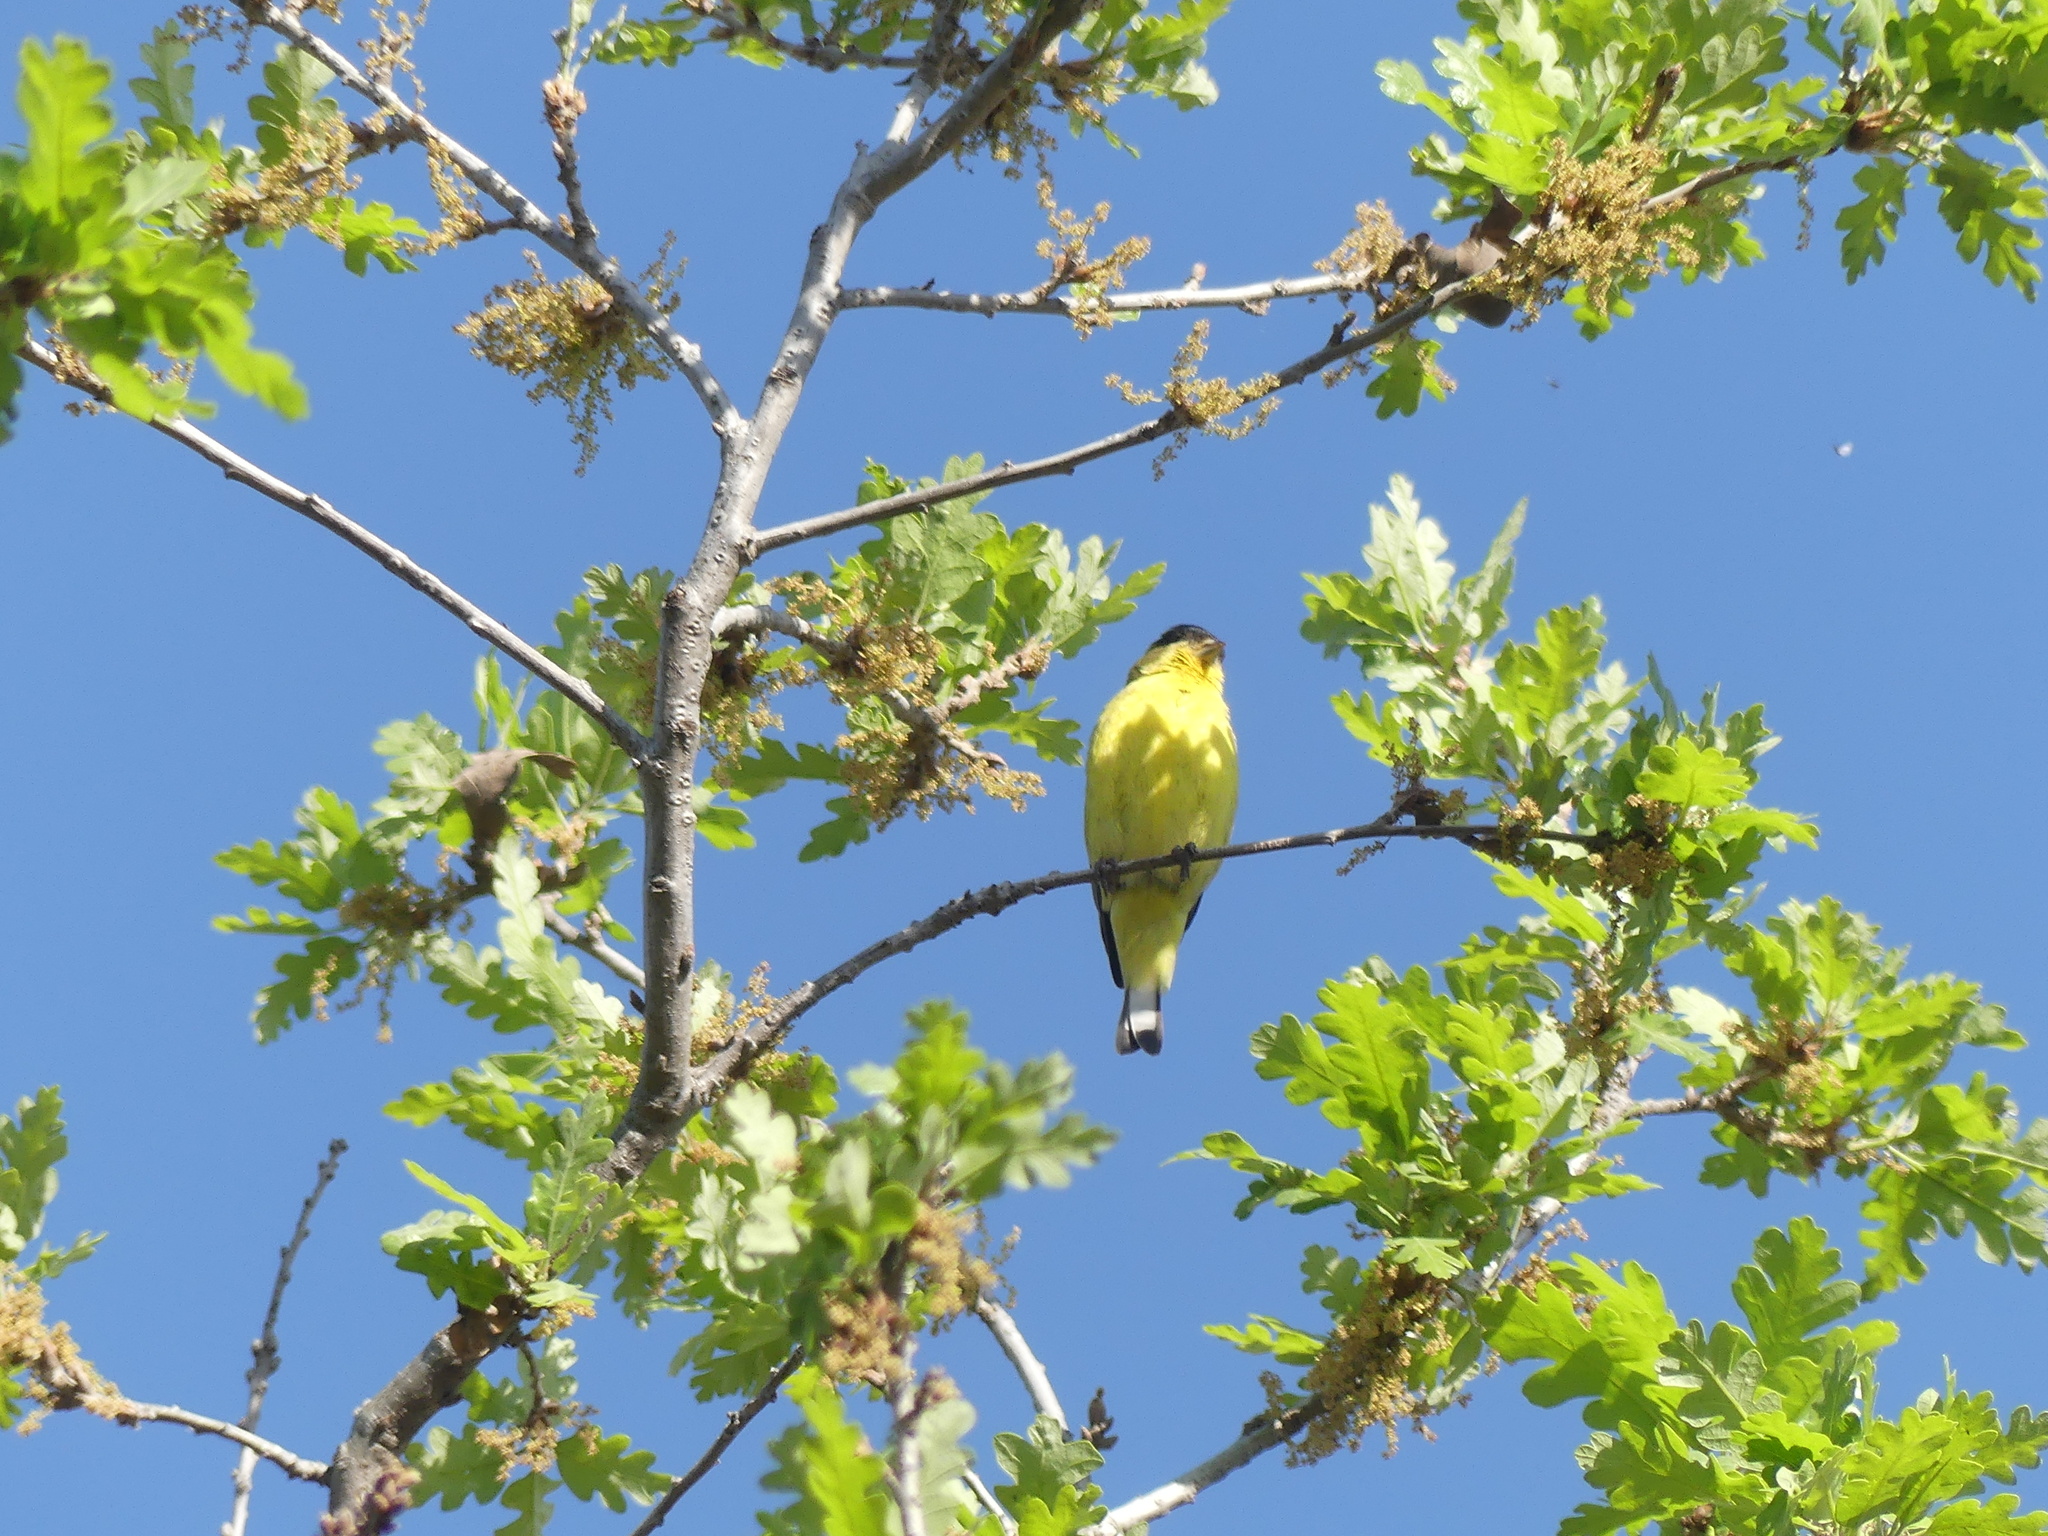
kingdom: Animalia
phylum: Chordata
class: Aves
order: Passeriformes
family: Fringillidae
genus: Spinus
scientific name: Spinus psaltria
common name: Lesser goldfinch
